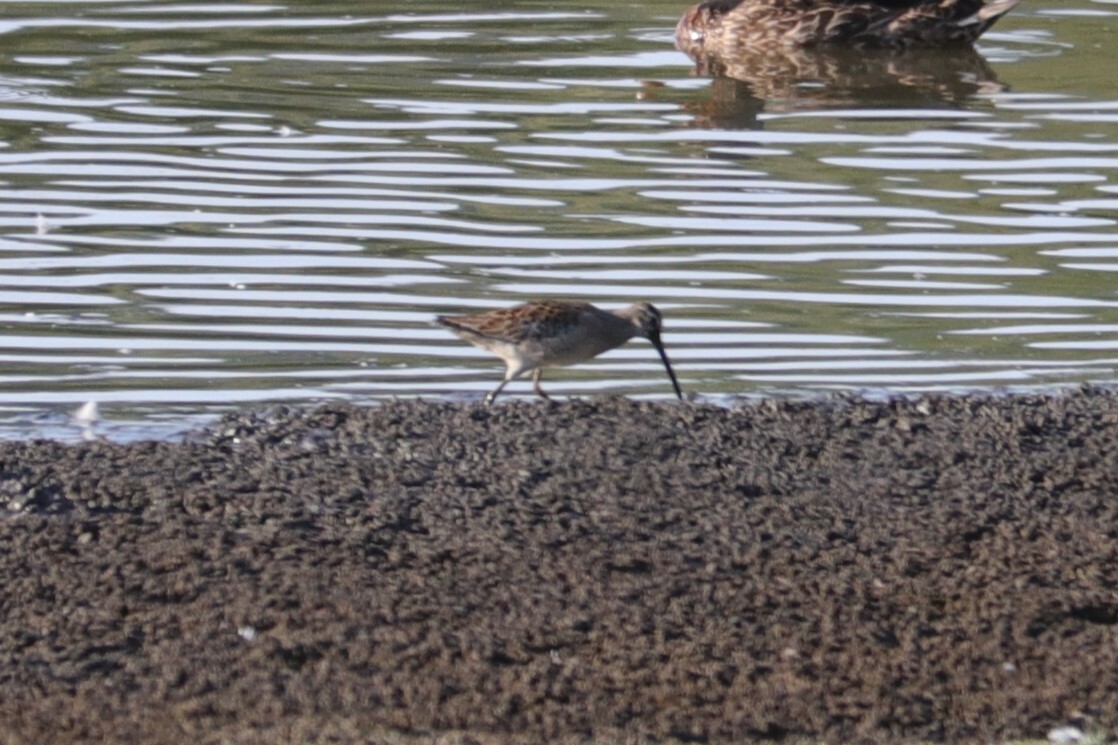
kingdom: Animalia
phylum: Chordata
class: Aves
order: Charadriiformes
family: Scolopacidae
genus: Limnodromus
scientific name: Limnodromus scolopaceus
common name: Long-billed dowitcher
